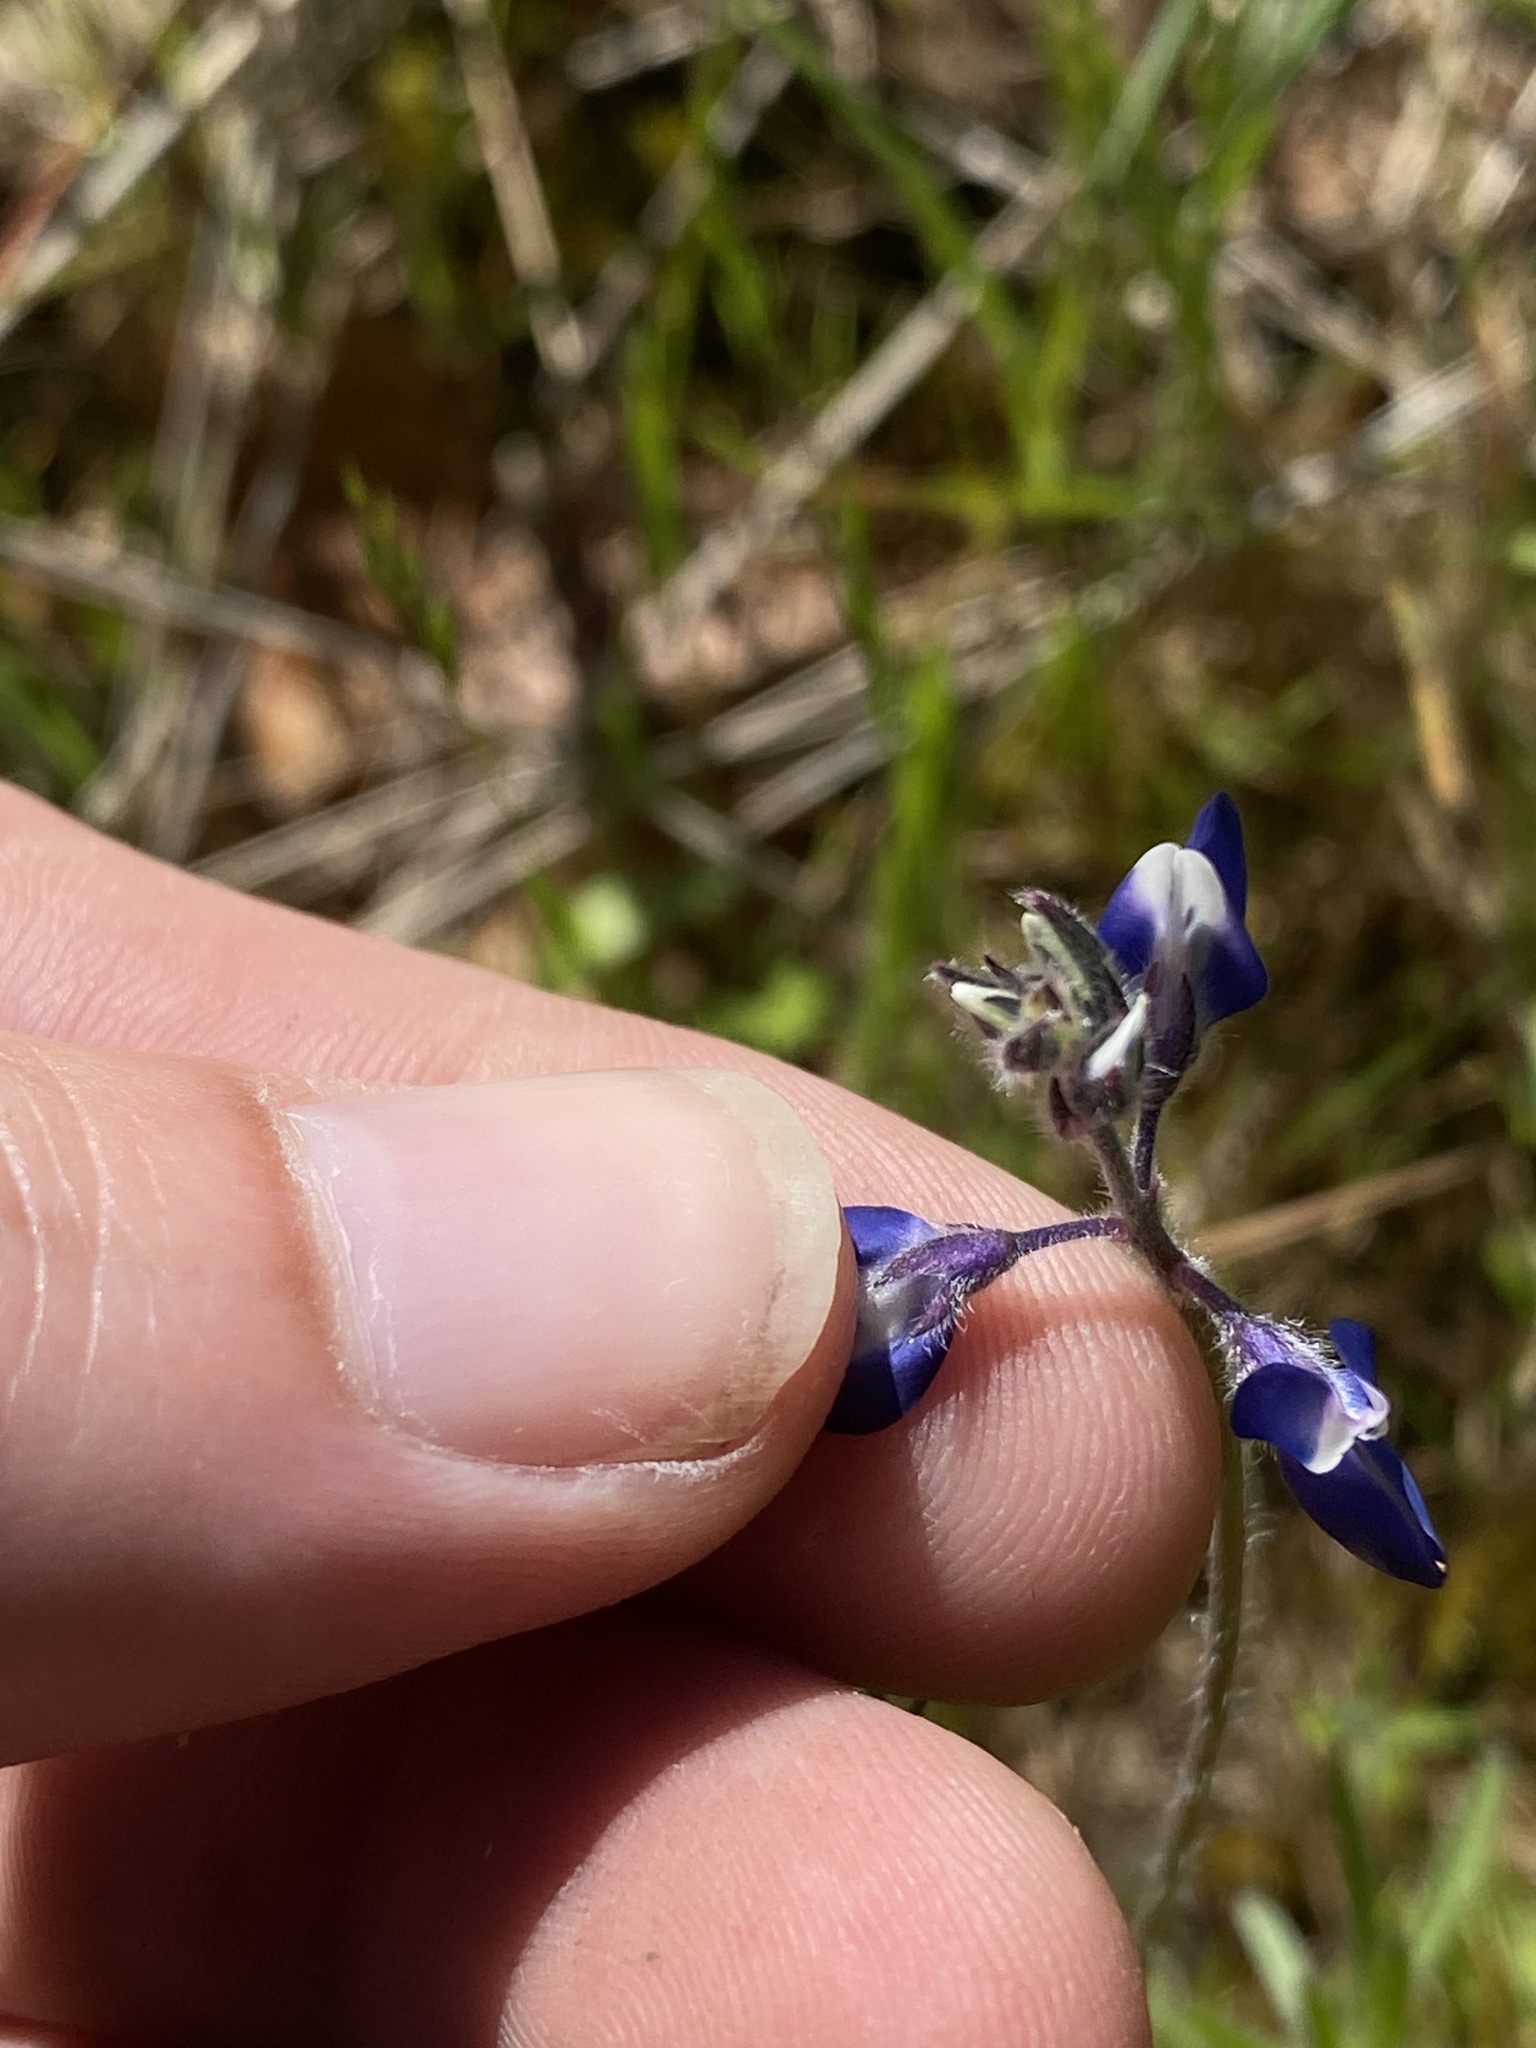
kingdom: Plantae
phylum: Tracheophyta
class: Magnoliopsida
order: Fabales
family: Fabaceae
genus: Lupinus
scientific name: Lupinus bicolor
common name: Miniature lupine
